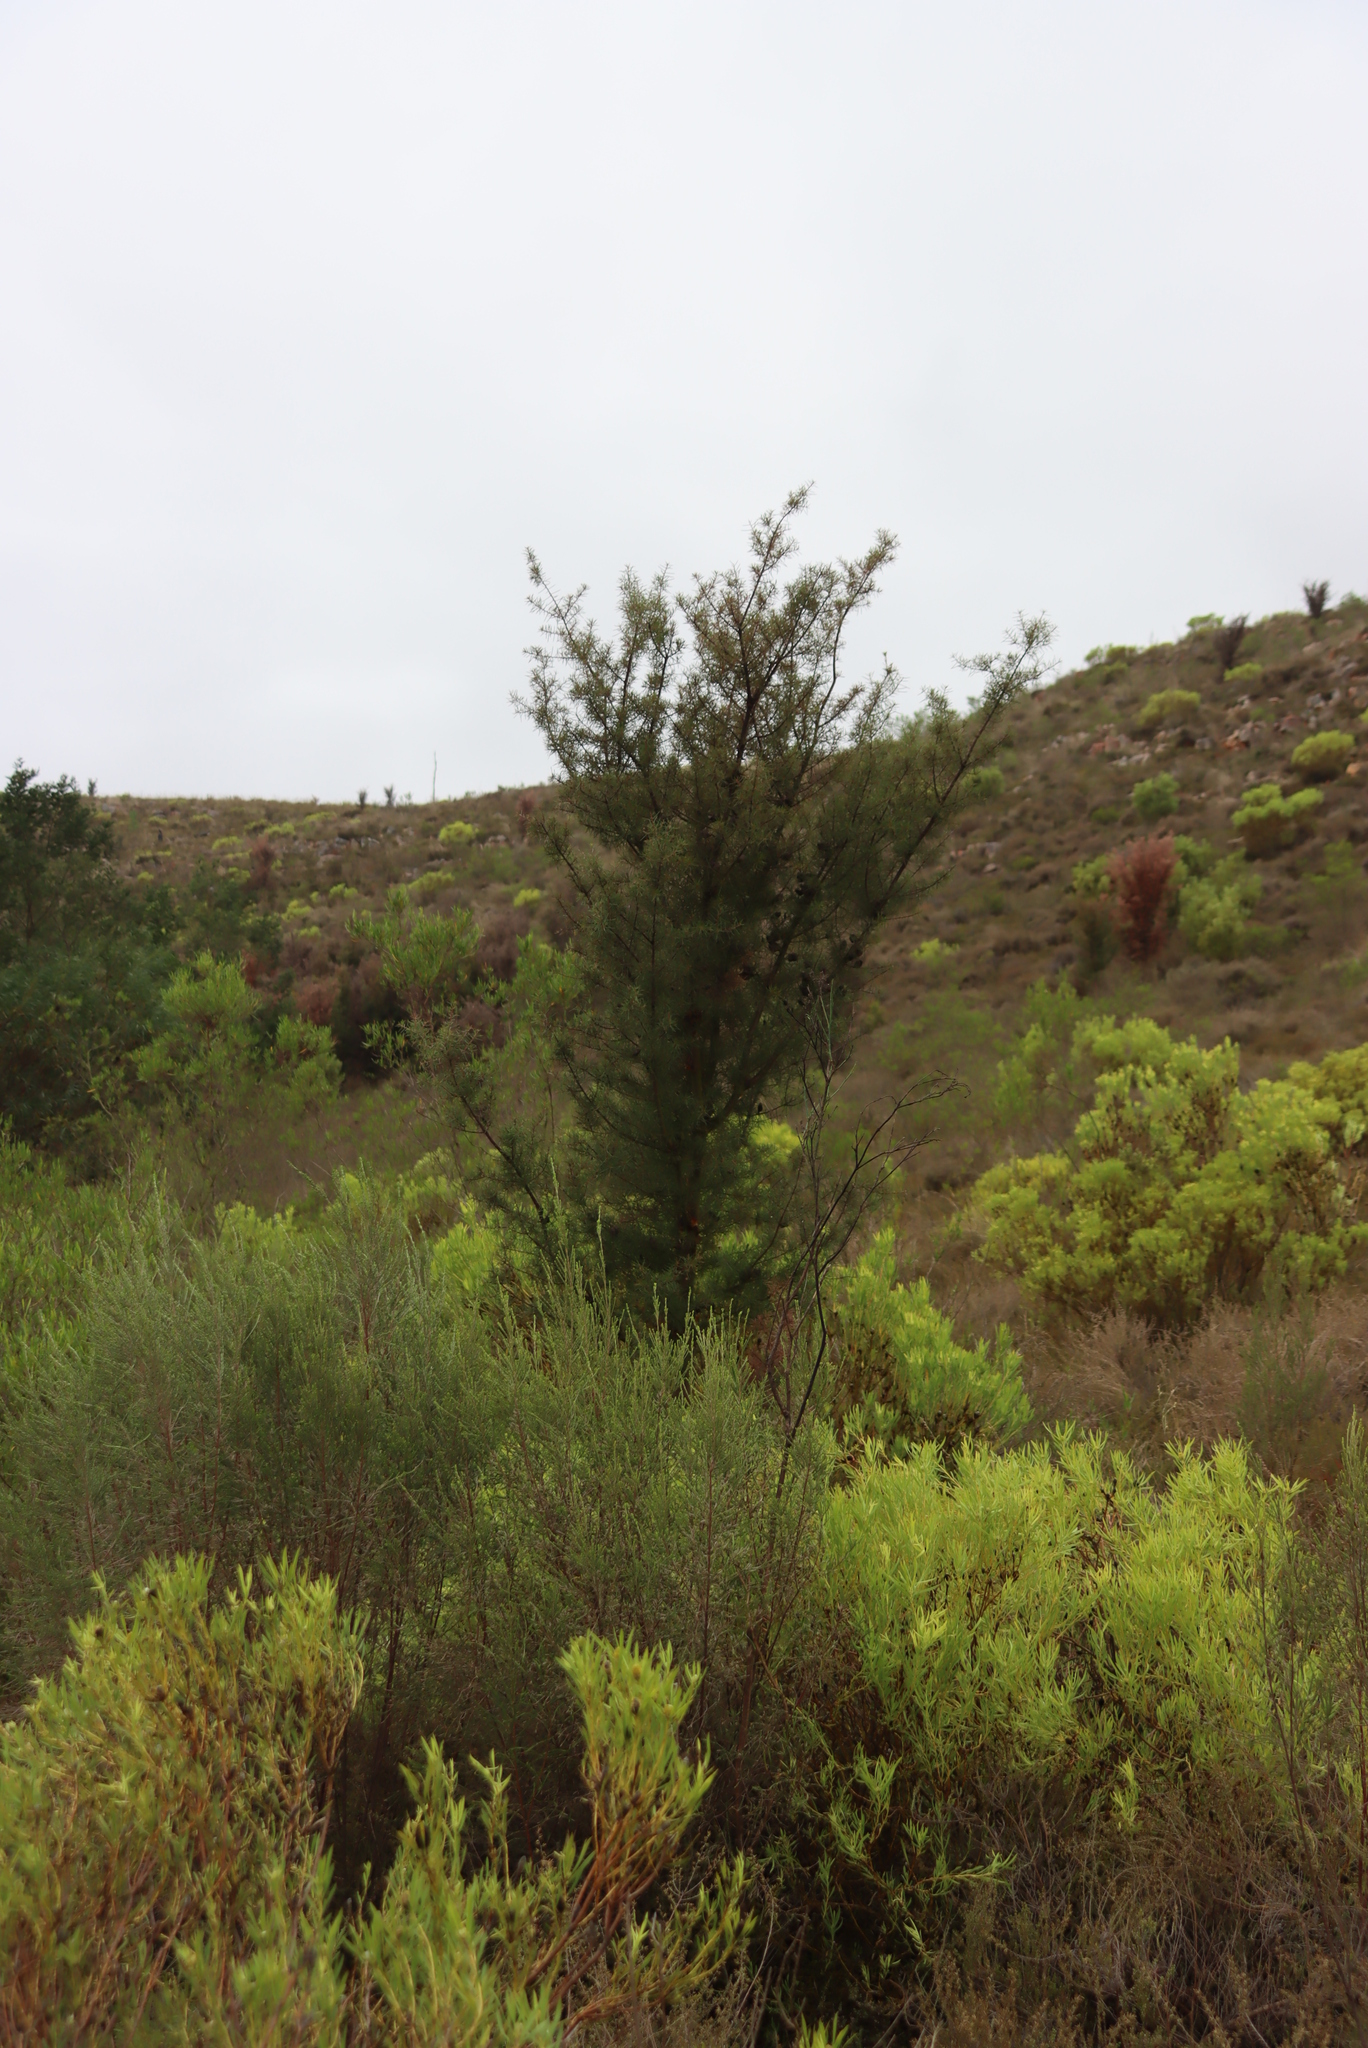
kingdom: Plantae
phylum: Tracheophyta
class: Magnoliopsida
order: Proteales
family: Proteaceae
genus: Hakea
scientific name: Hakea sericea
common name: Needle bush
